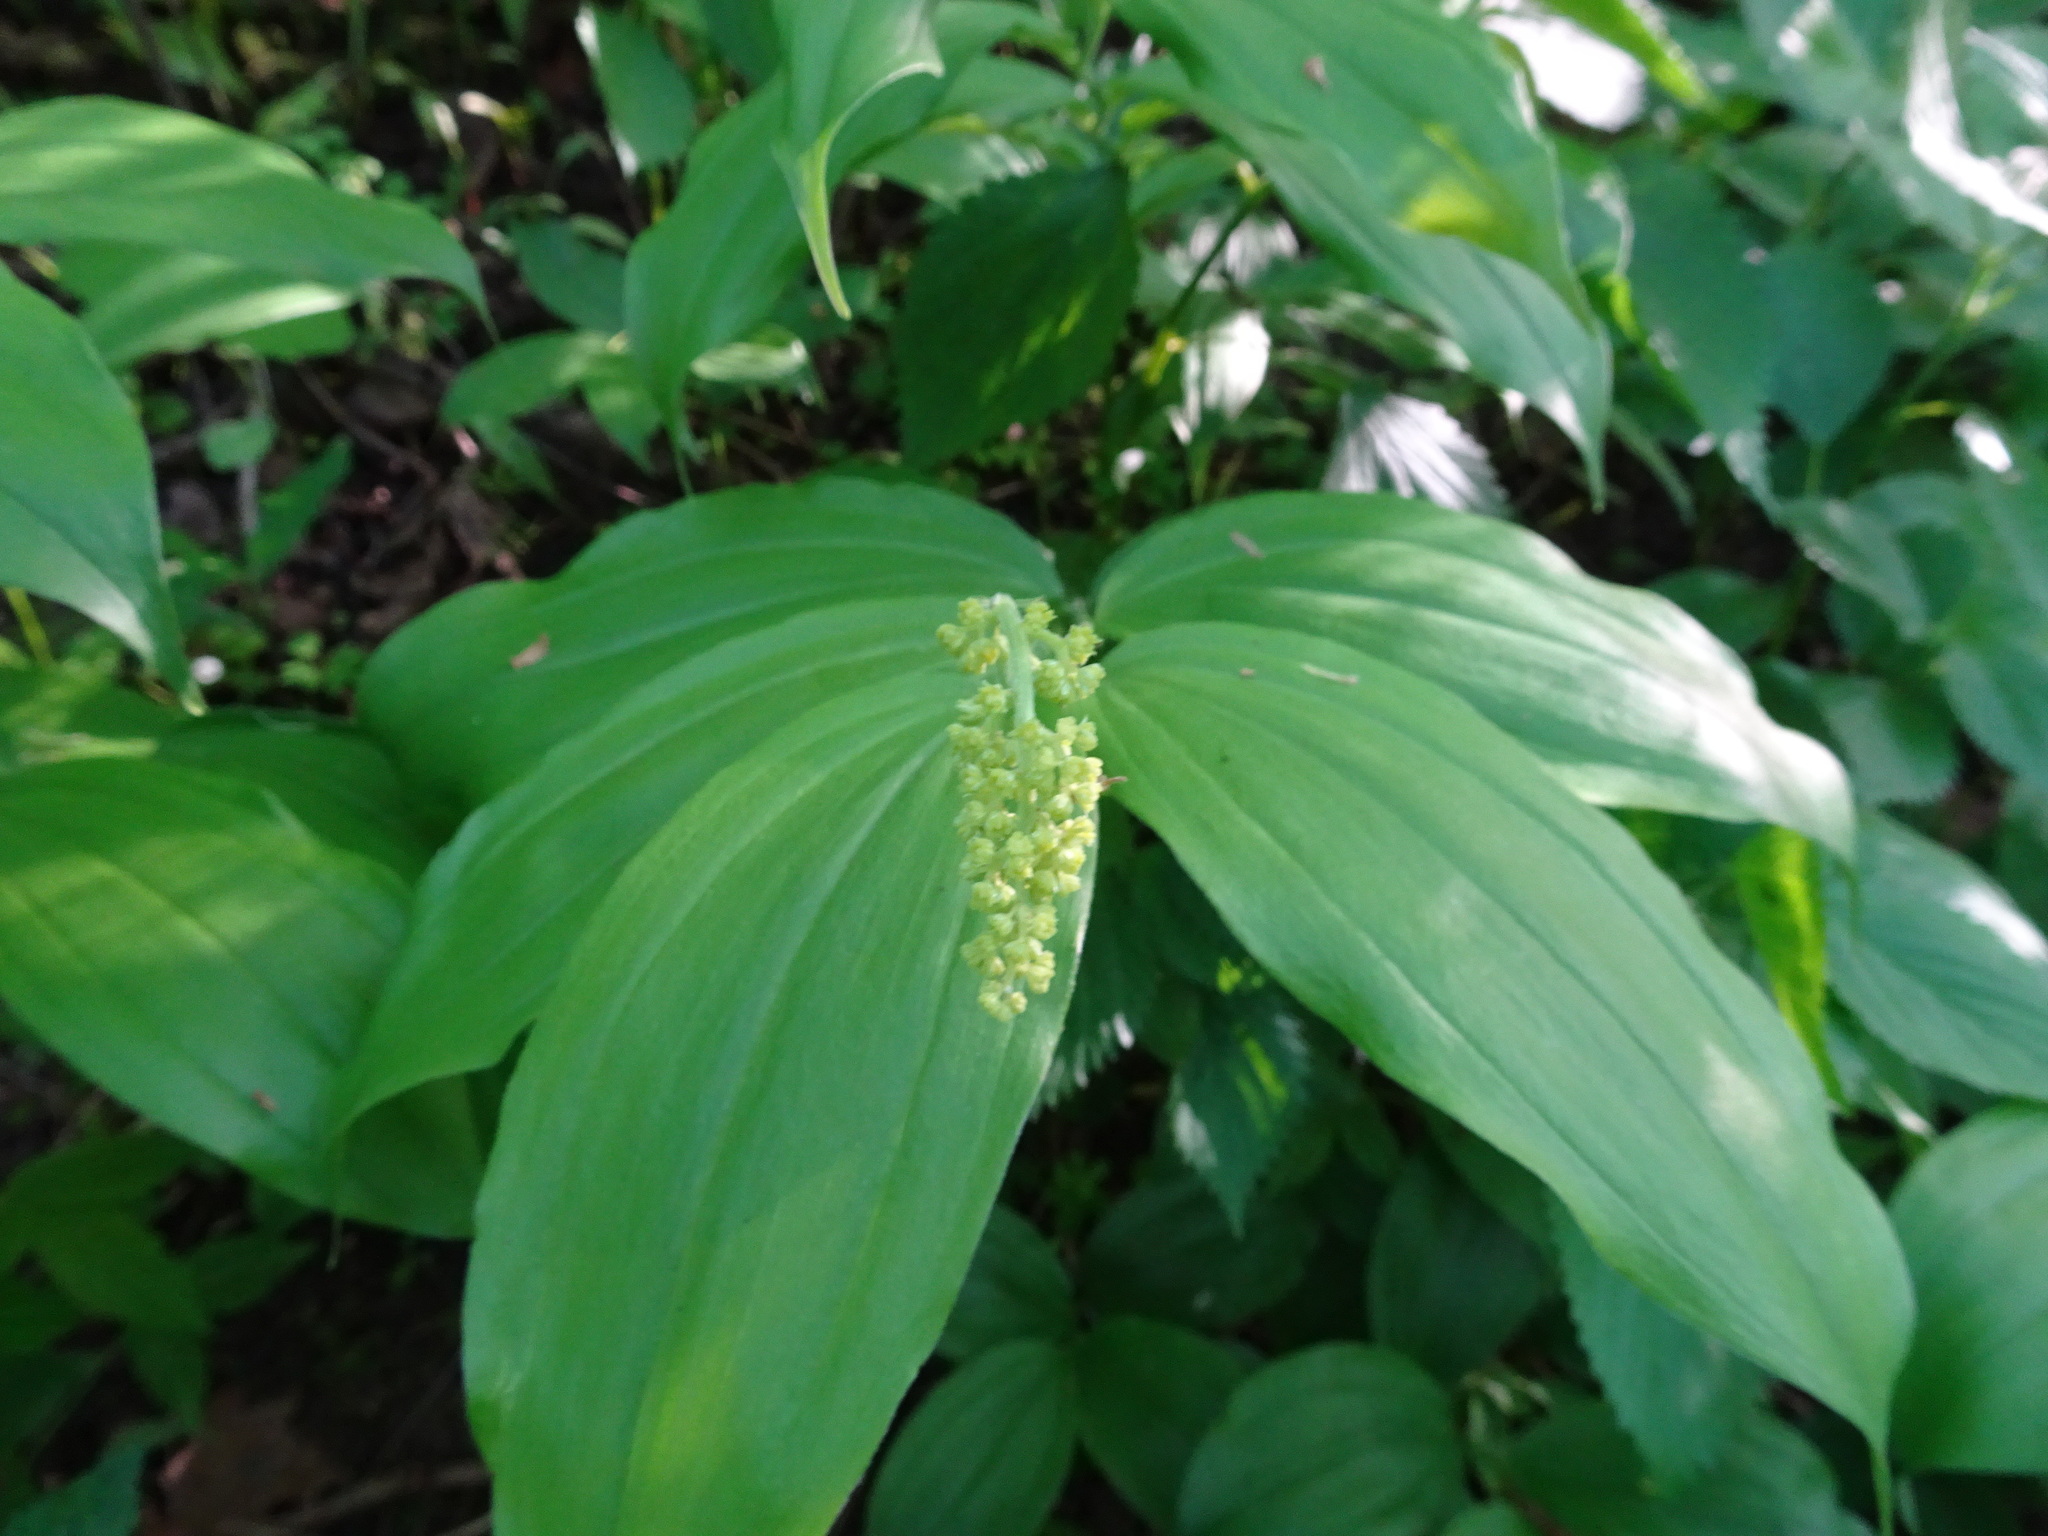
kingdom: Plantae
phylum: Tracheophyta
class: Liliopsida
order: Asparagales
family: Asparagaceae
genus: Maianthemum
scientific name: Maianthemum racemosum
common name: False spikenard
